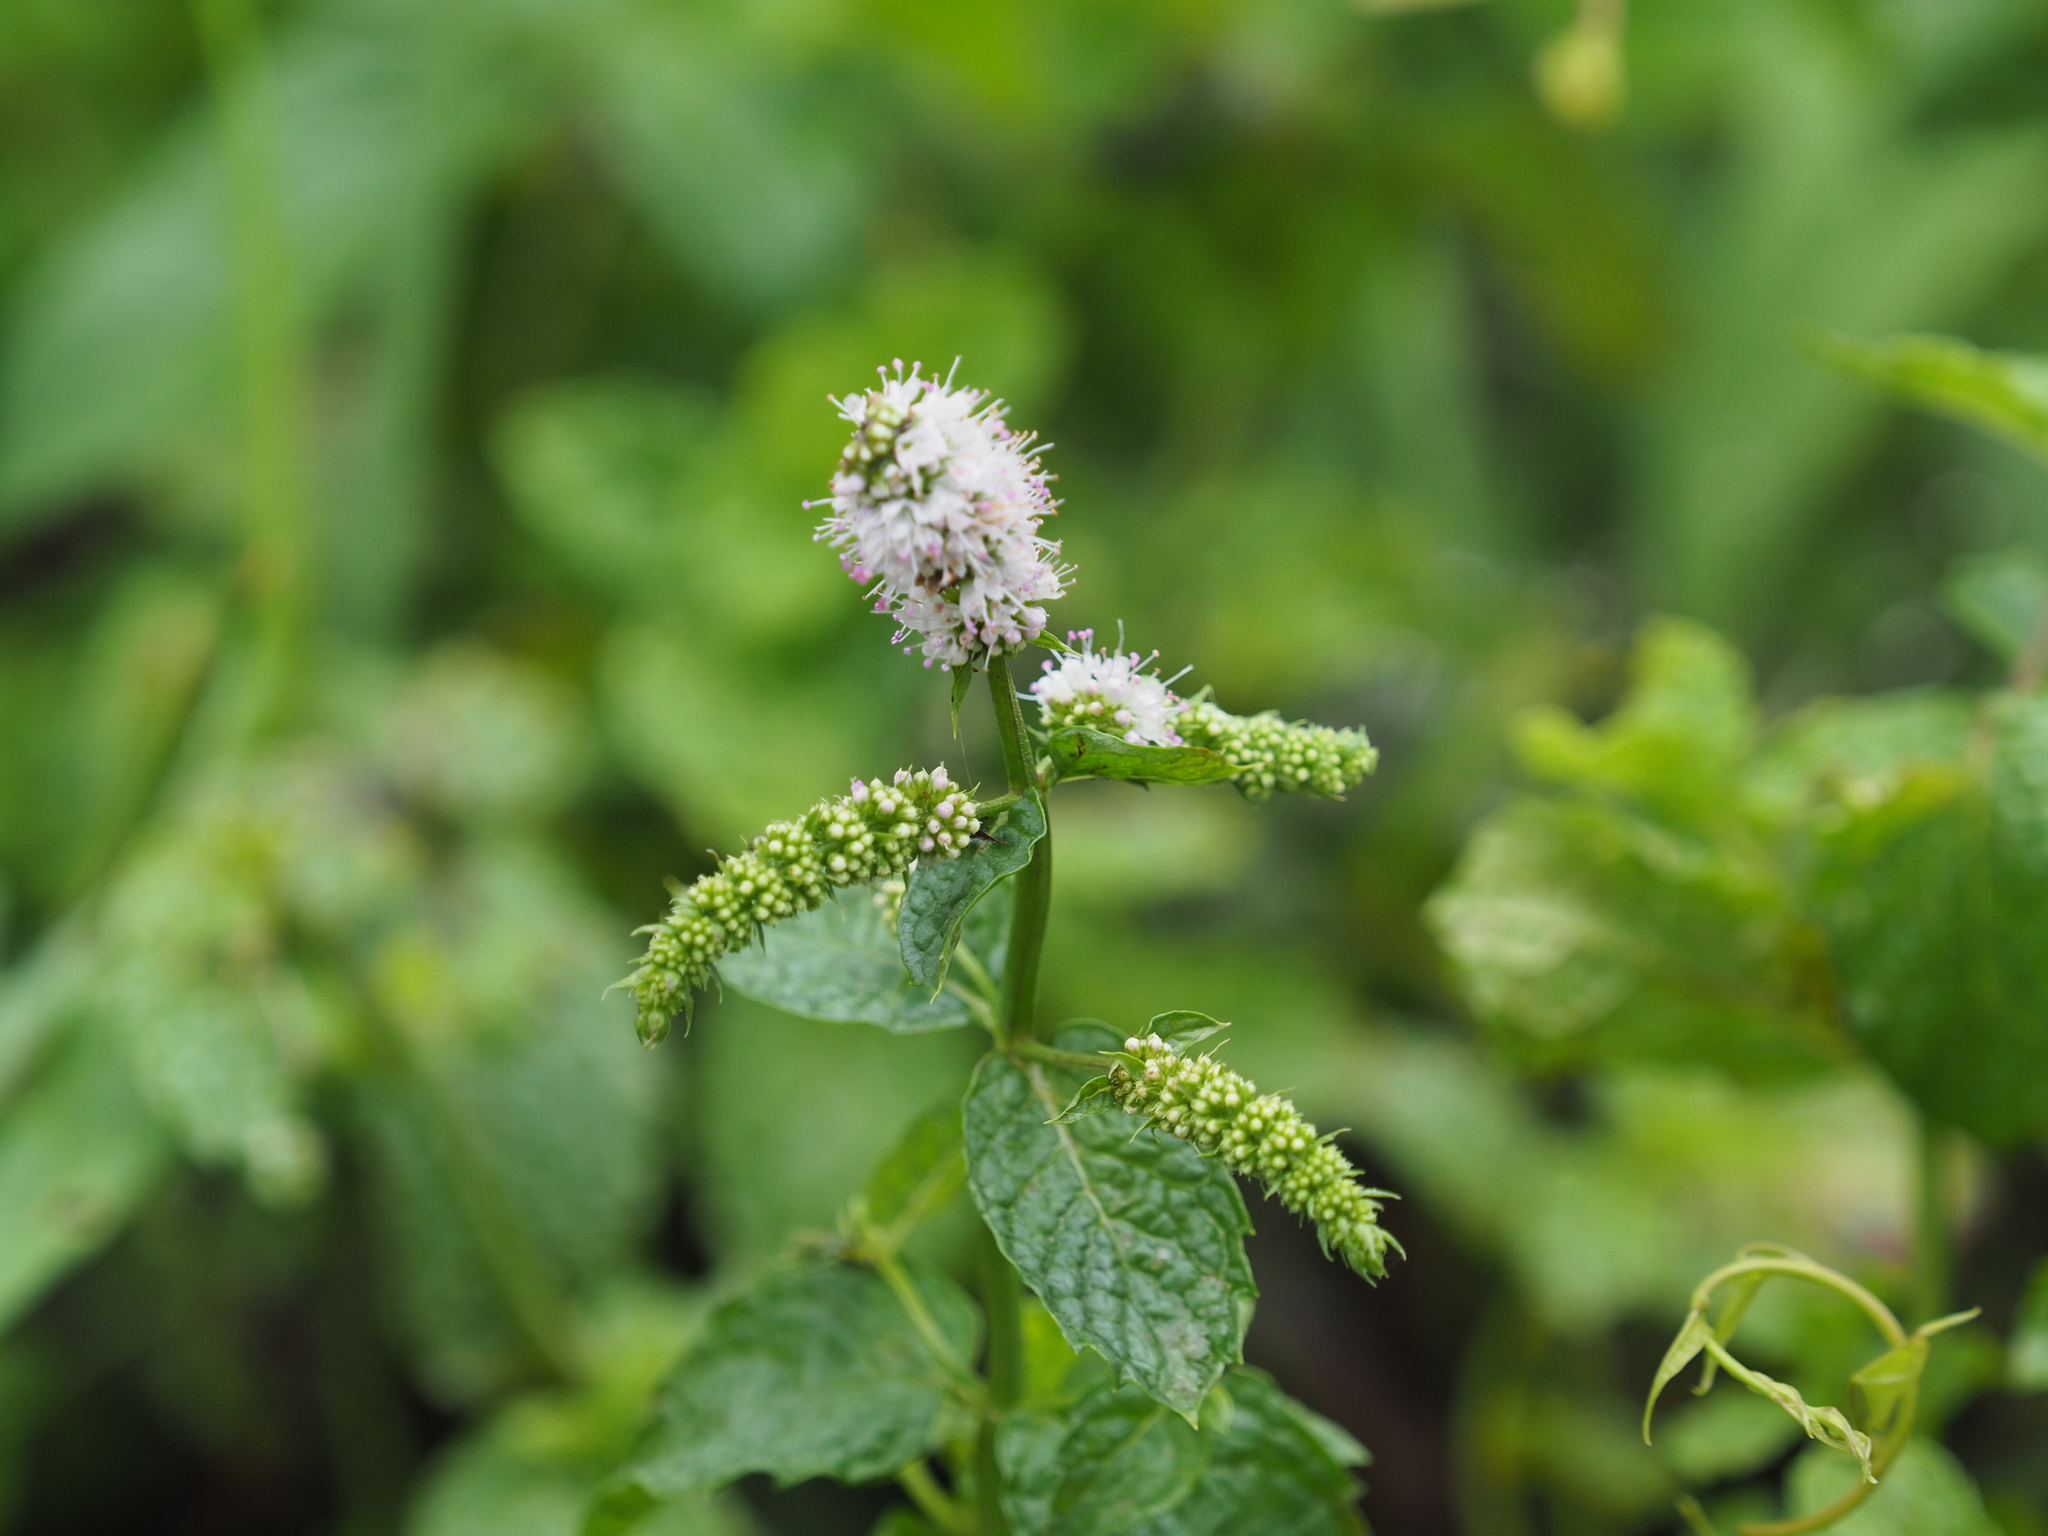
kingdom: Plantae
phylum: Tracheophyta
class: Magnoliopsida
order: Lamiales
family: Lamiaceae
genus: Mentha
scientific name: Mentha spicata
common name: Spearmint
